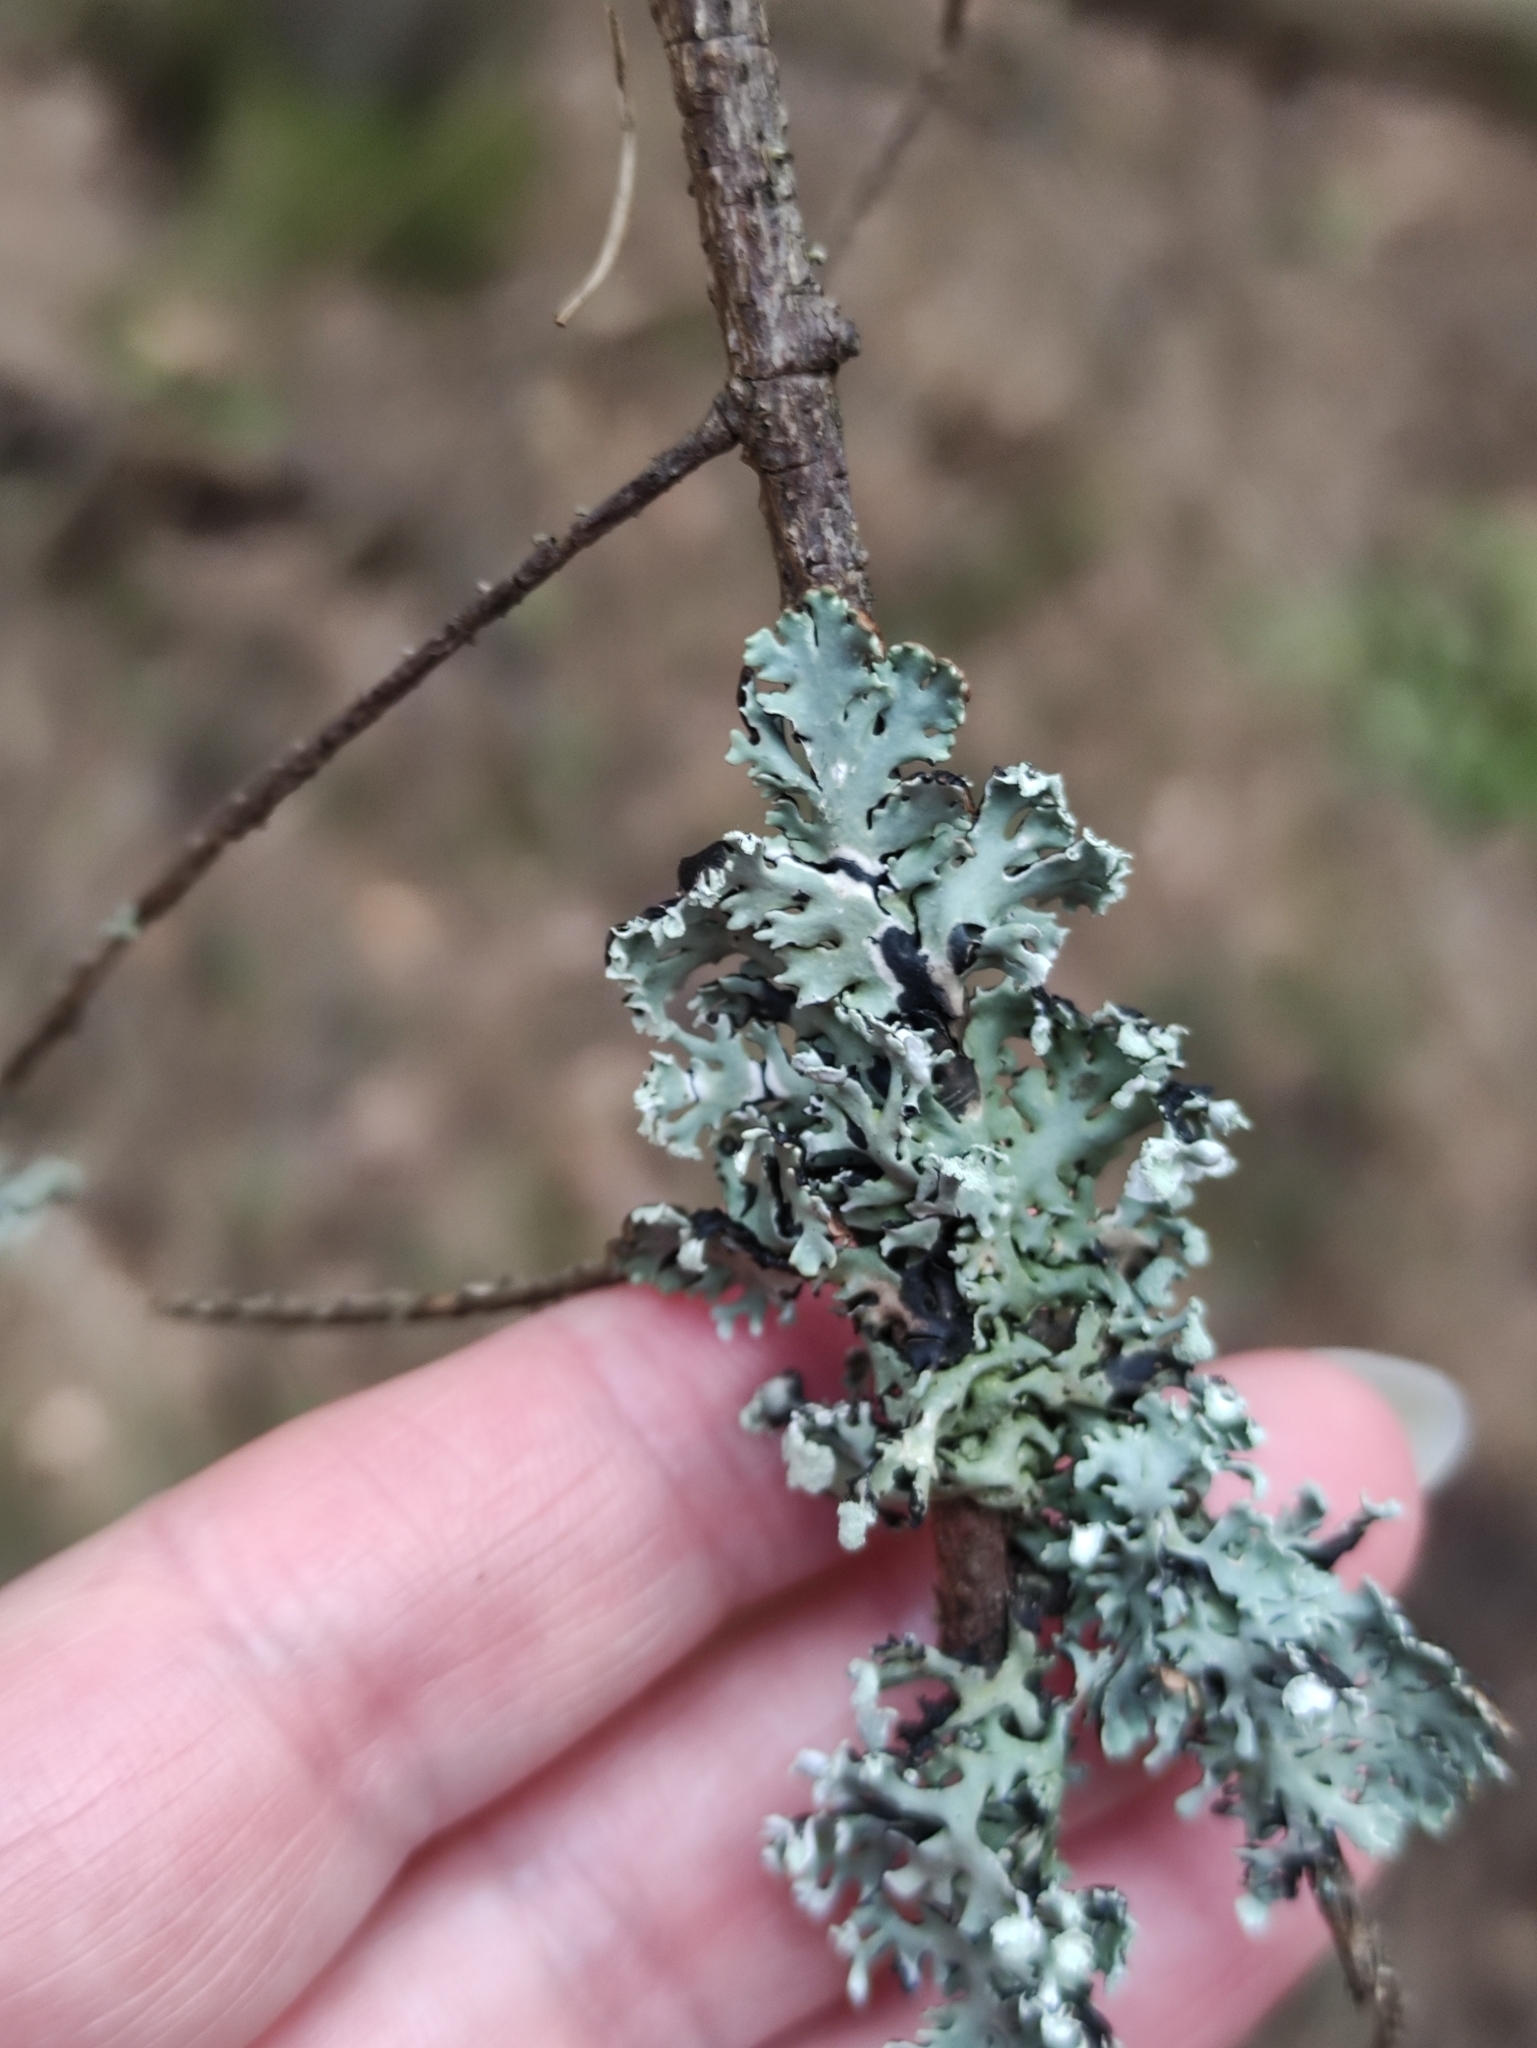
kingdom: Fungi
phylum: Ascomycota
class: Lecanoromycetes
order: Lecanorales
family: Parmeliaceae
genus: Hypogymnia
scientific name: Hypogymnia physodes
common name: Dark crottle
